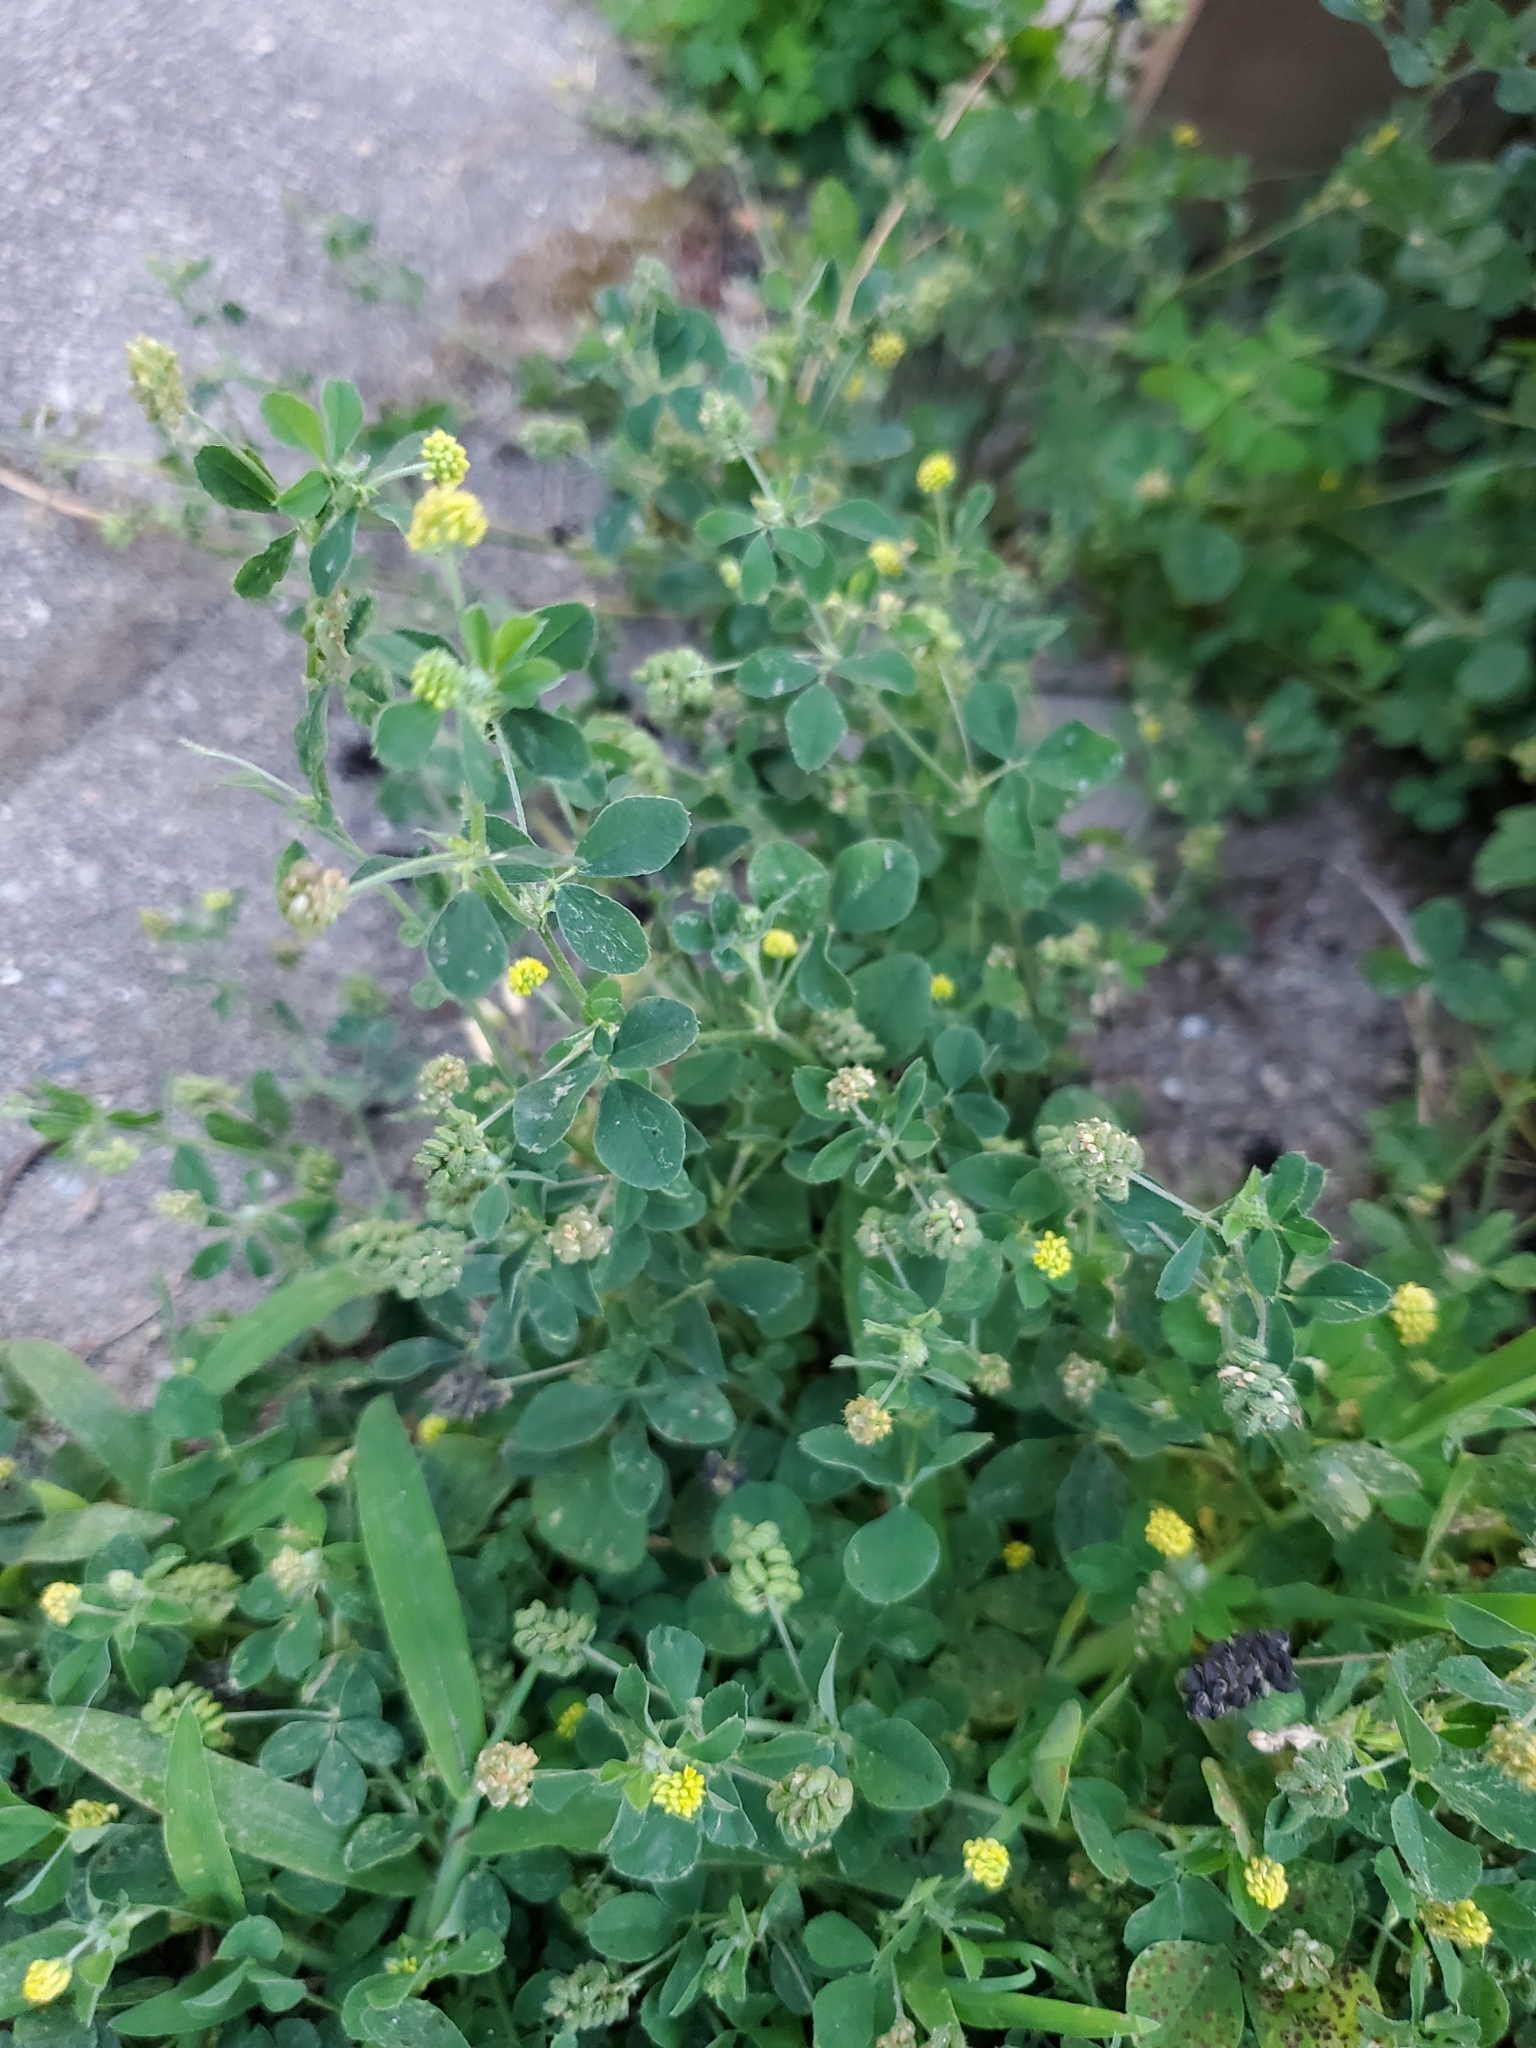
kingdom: Plantae
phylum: Tracheophyta
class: Magnoliopsida
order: Fabales
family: Fabaceae
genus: Medicago
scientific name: Medicago lupulina
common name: Black medick
